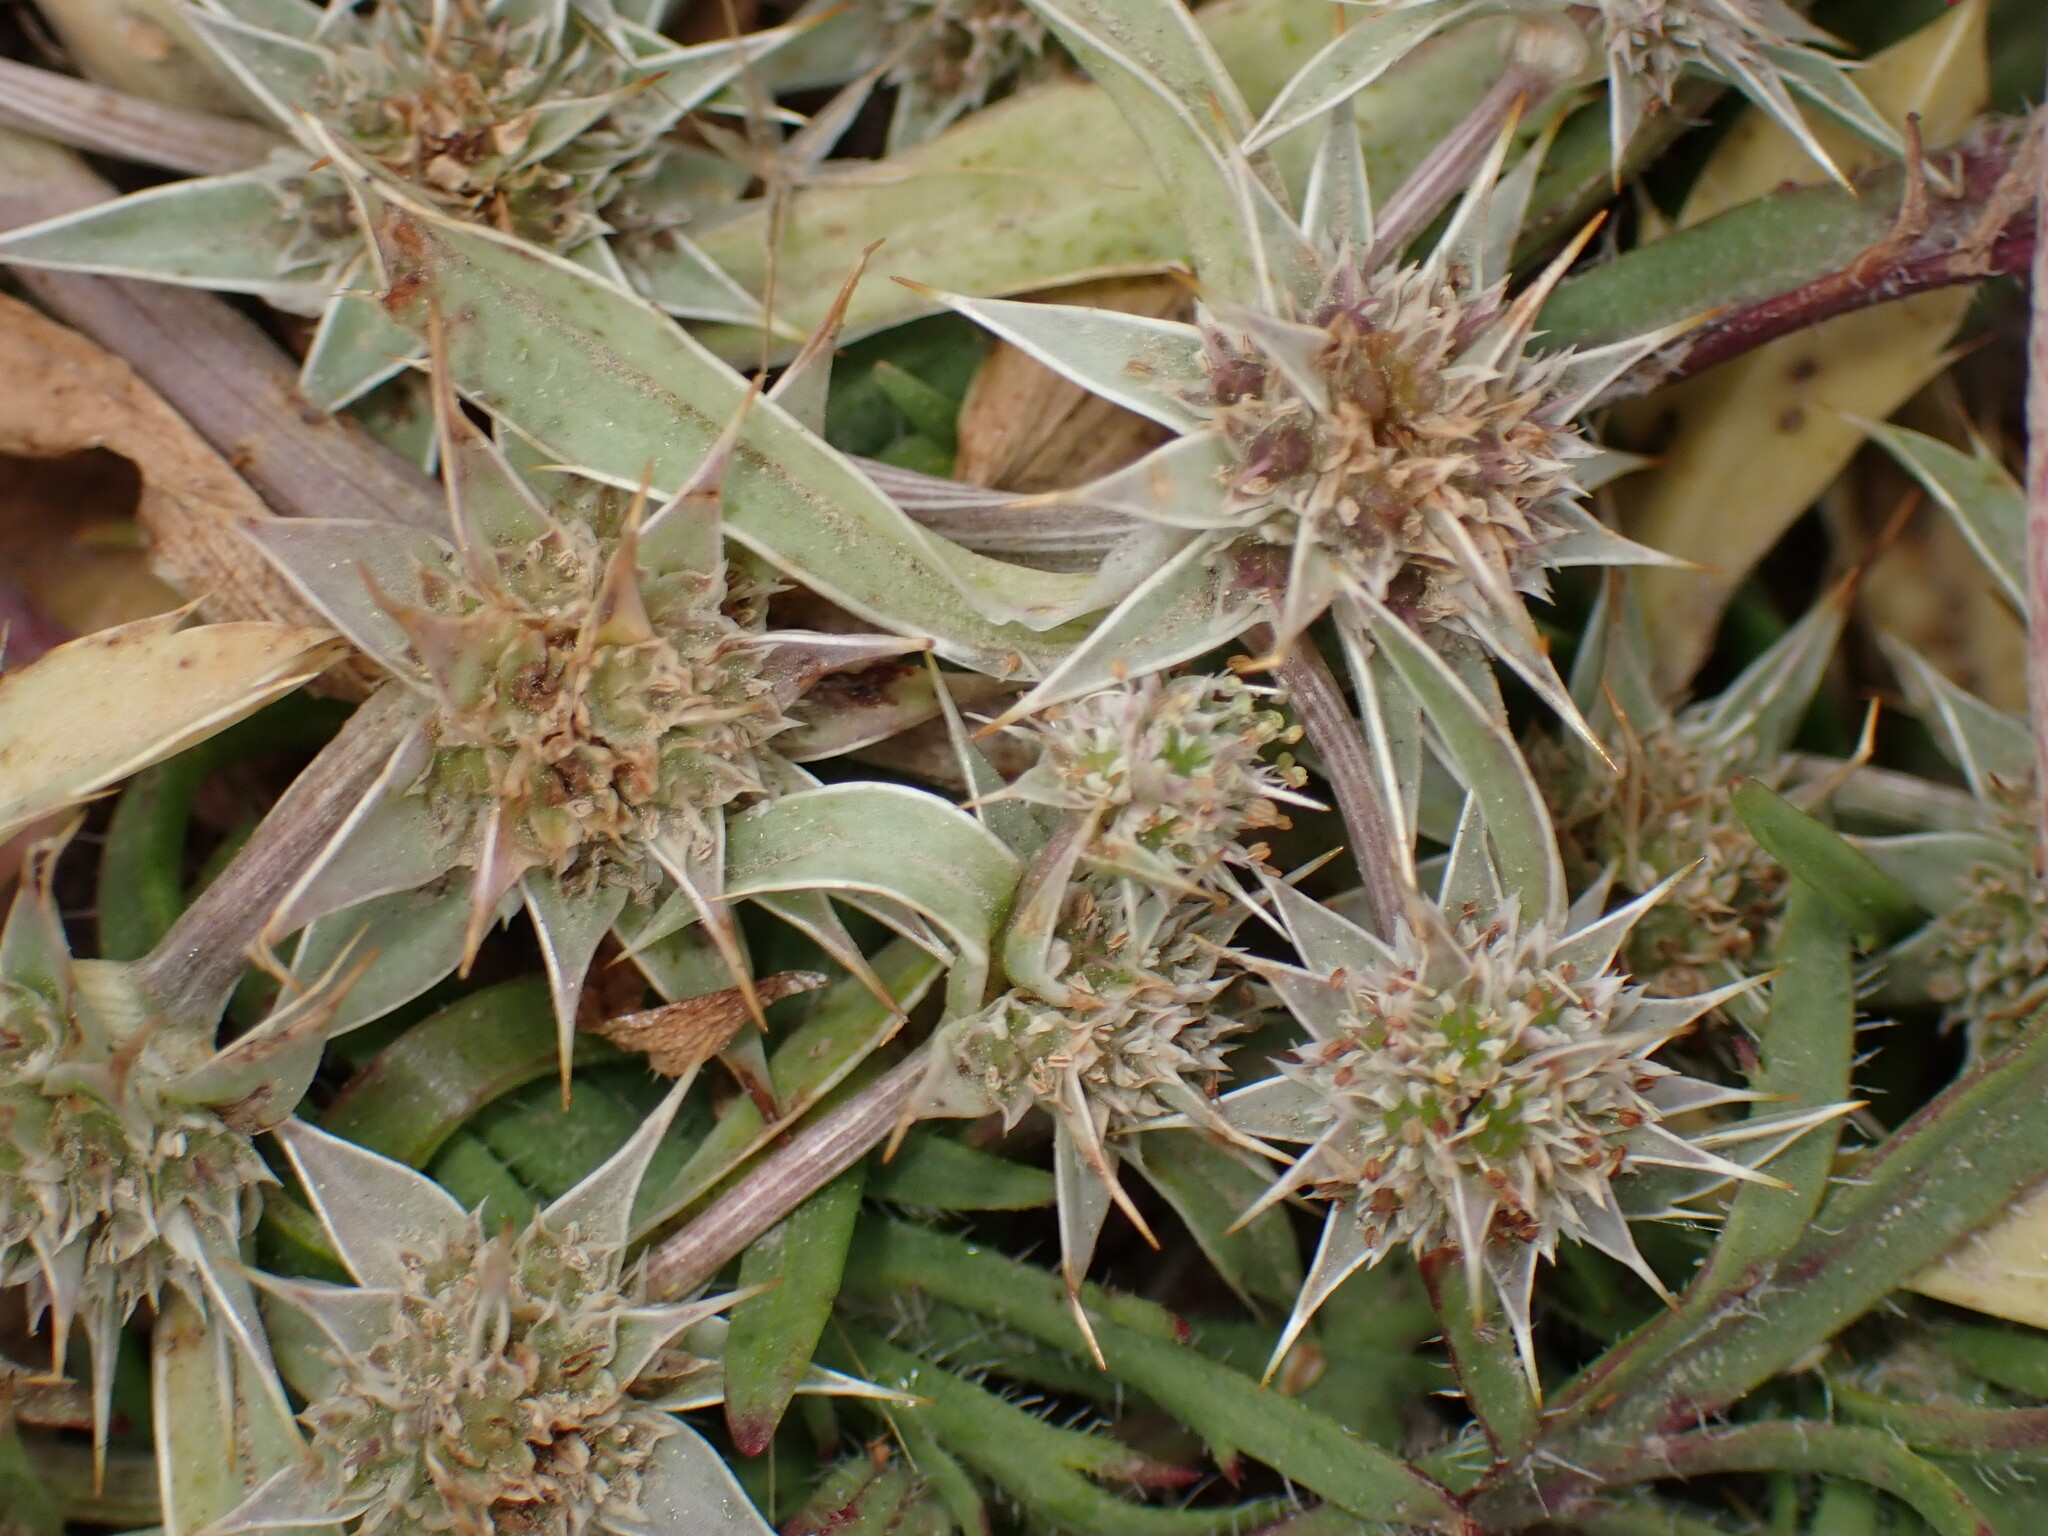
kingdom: Plantae
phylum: Tracheophyta
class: Magnoliopsida
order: Apiales
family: Apiaceae
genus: Eryngium
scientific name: Eryngium armatum
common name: Coyote thistle
